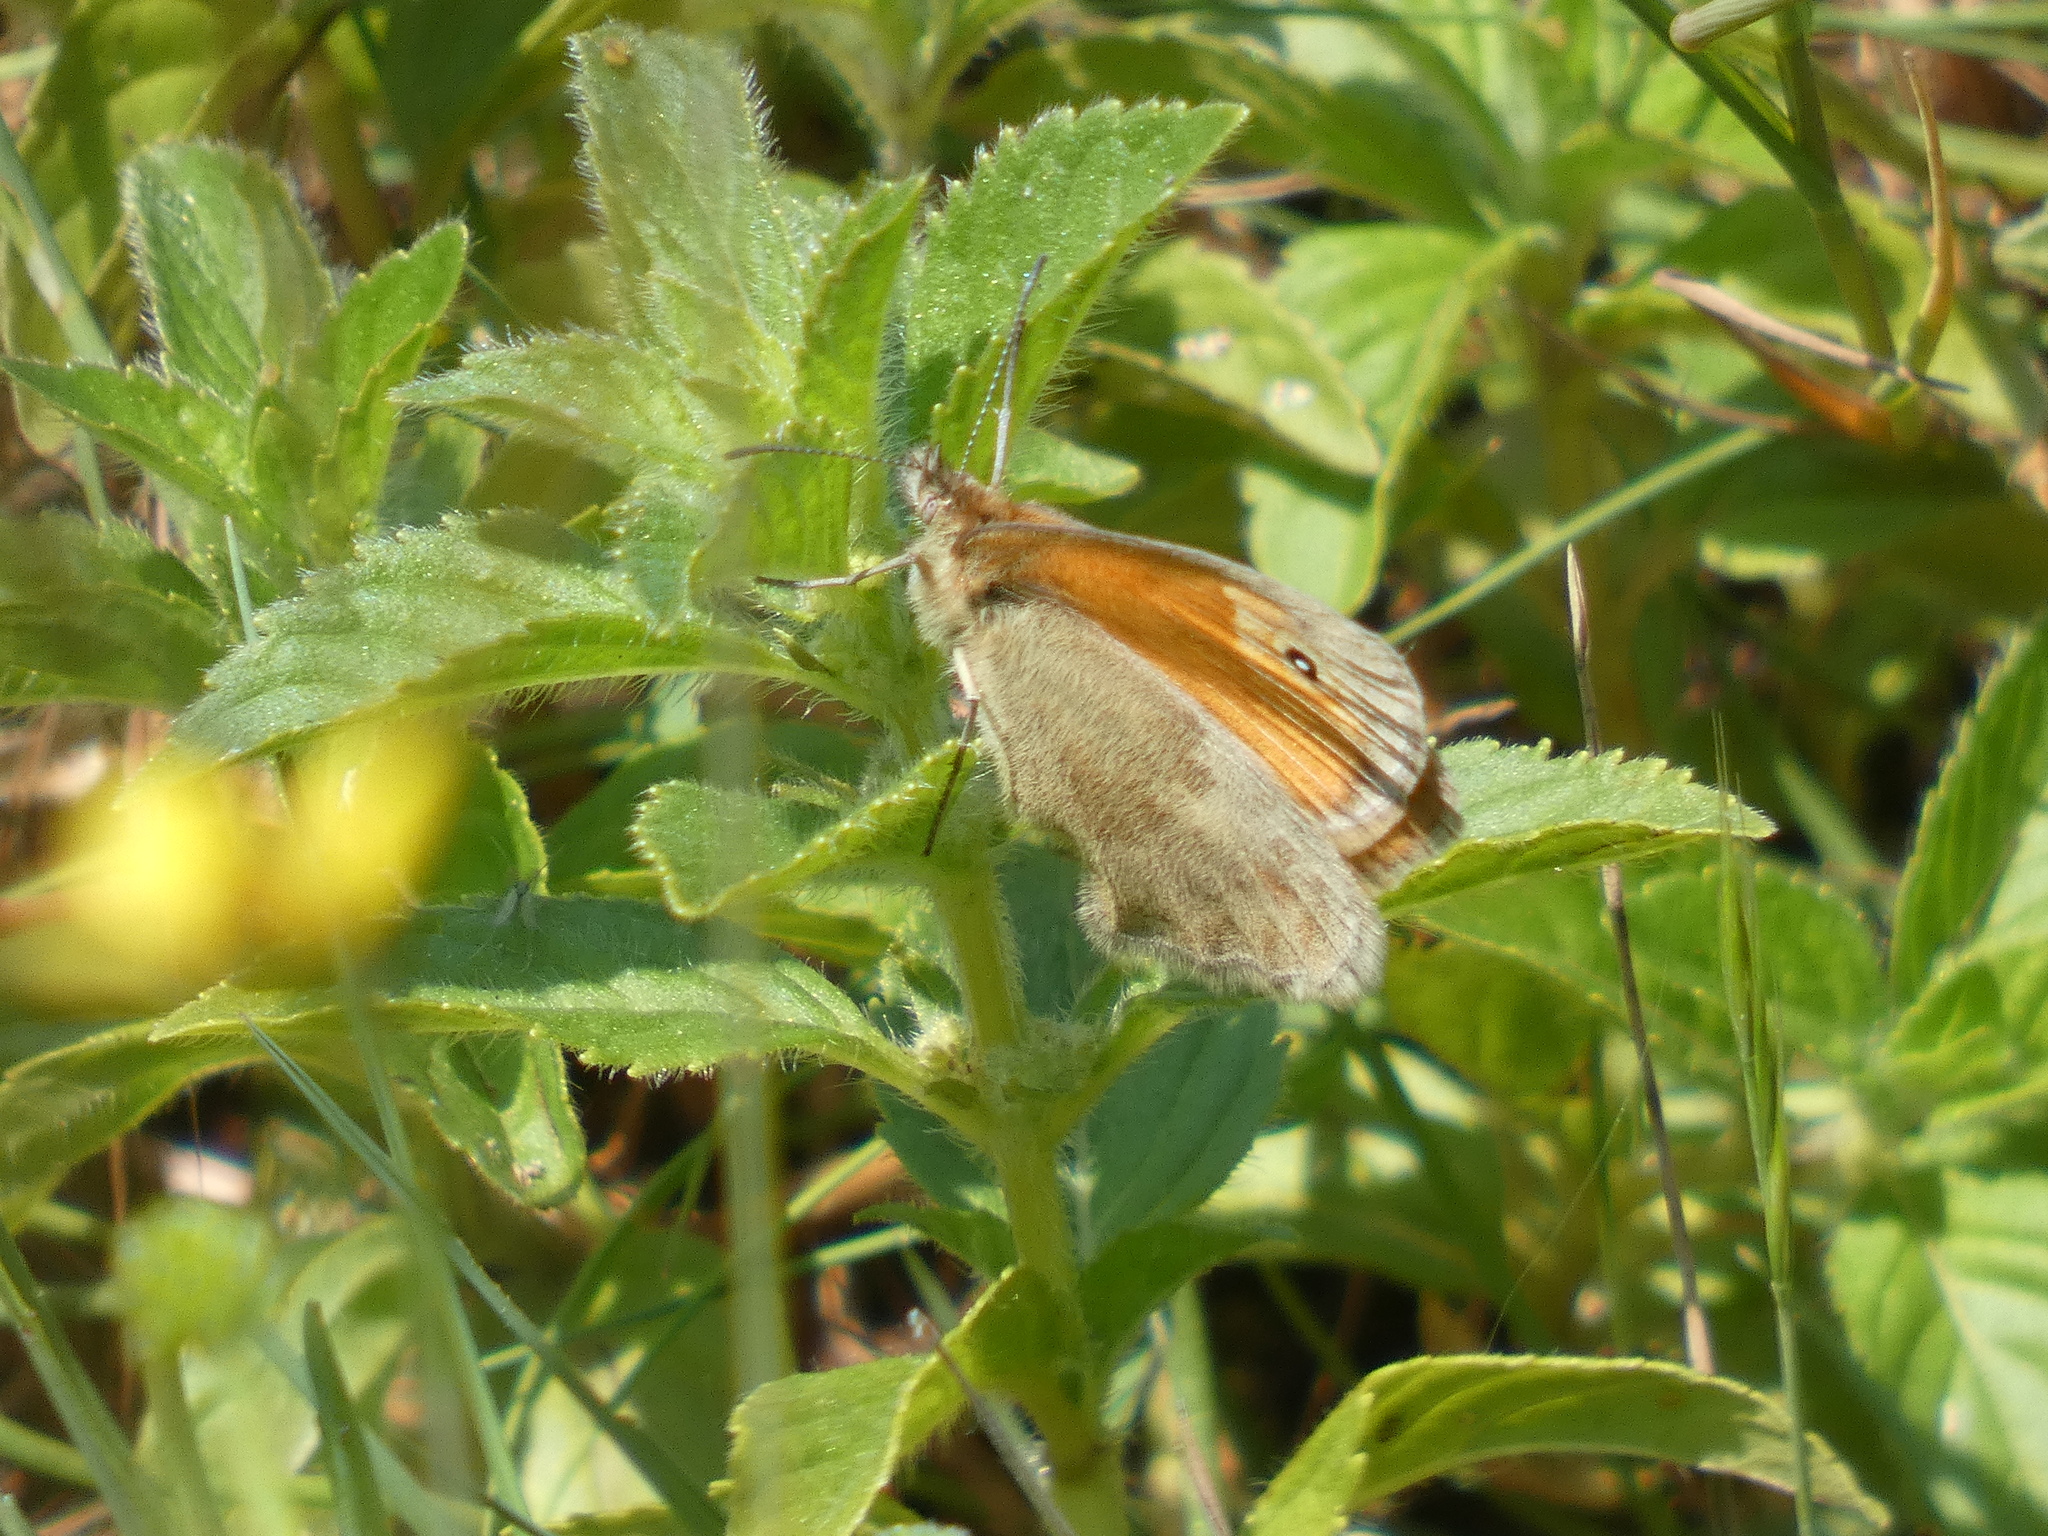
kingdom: Animalia
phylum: Arthropoda
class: Insecta
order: Lepidoptera
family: Nymphalidae
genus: Coenonympha
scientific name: Coenonympha pamphilus
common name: Small heath
